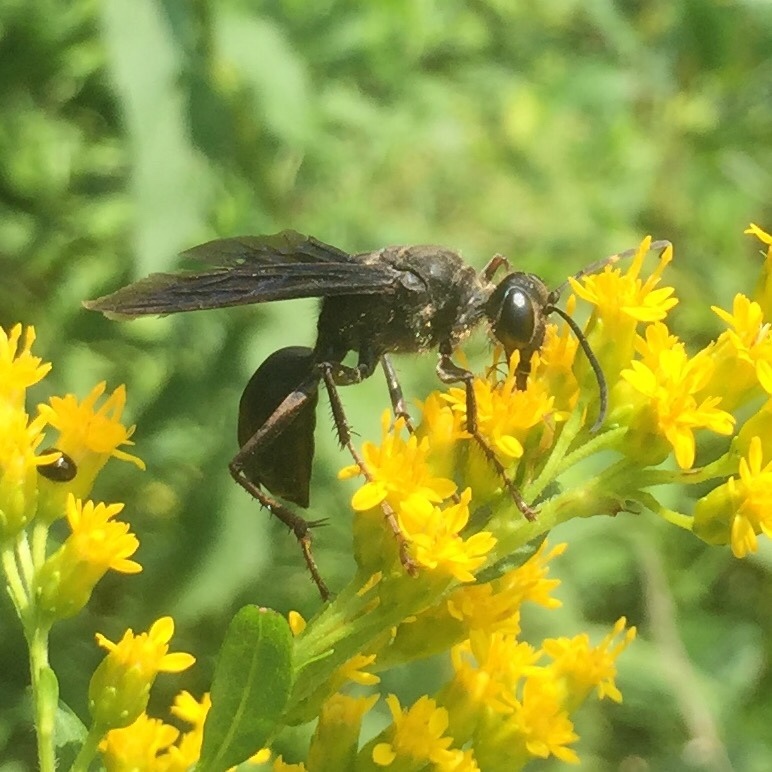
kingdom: Animalia
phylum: Arthropoda
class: Insecta
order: Hymenoptera
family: Sphecidae
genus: Sphex
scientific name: Sphex pensylvanicus
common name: Great black digger wasp
